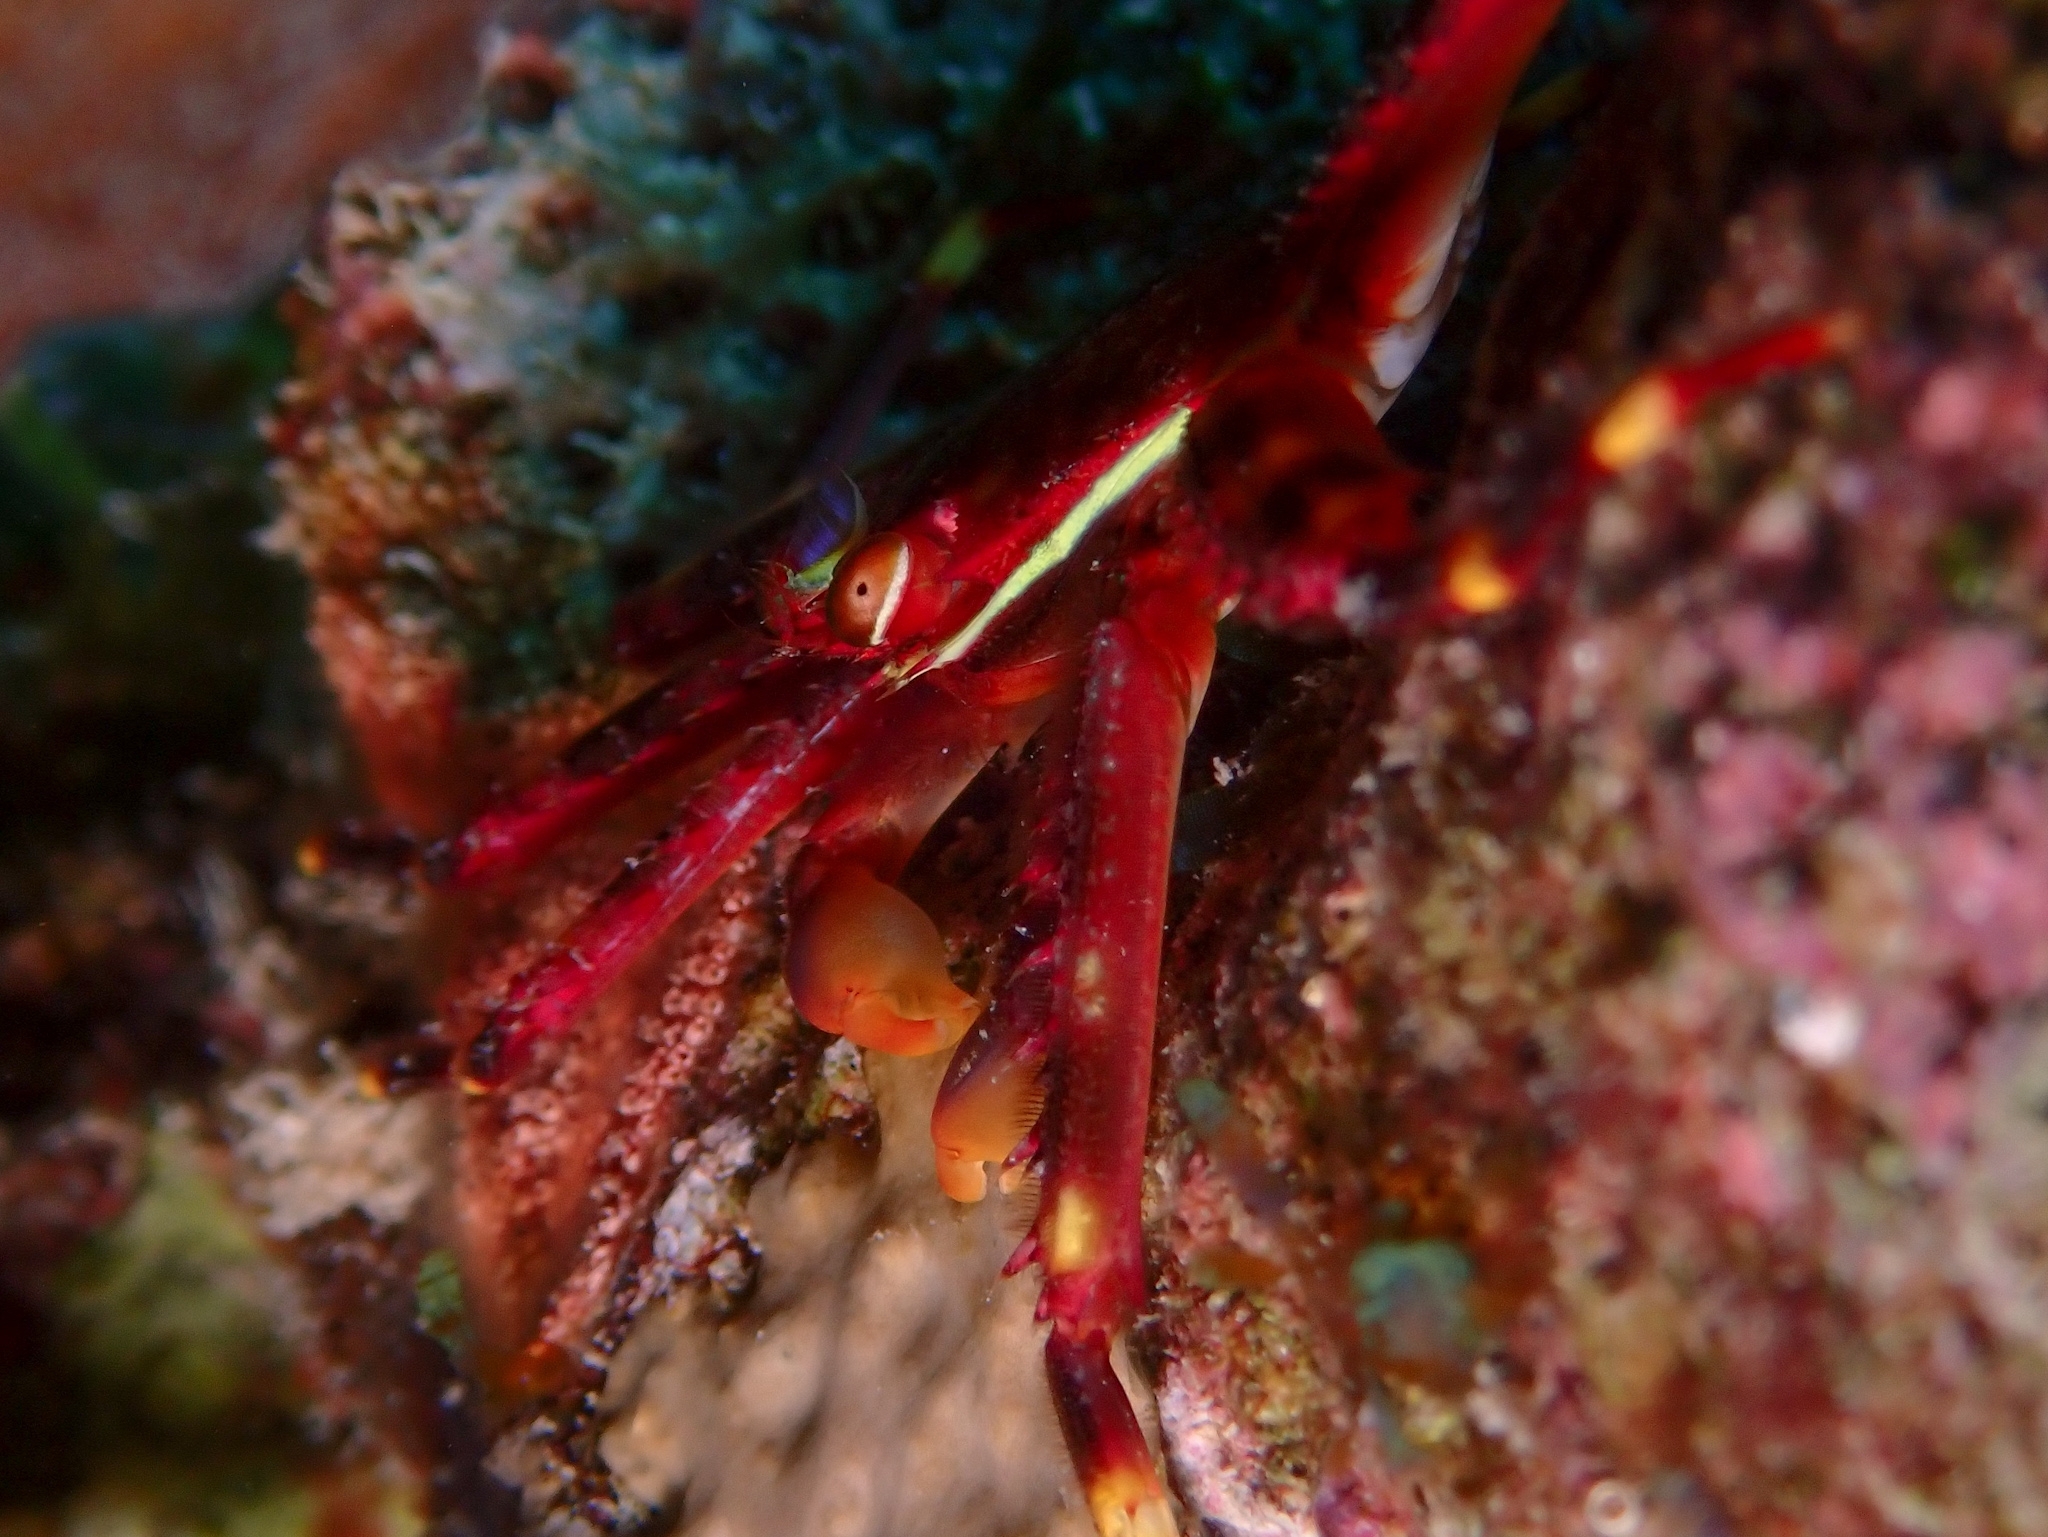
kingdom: Animalia
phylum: Arthropoda
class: Malacostraca
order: Decapoda
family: Percnidae
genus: Percnon
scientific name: Percnon gibbesi
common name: Nimble spray crab
